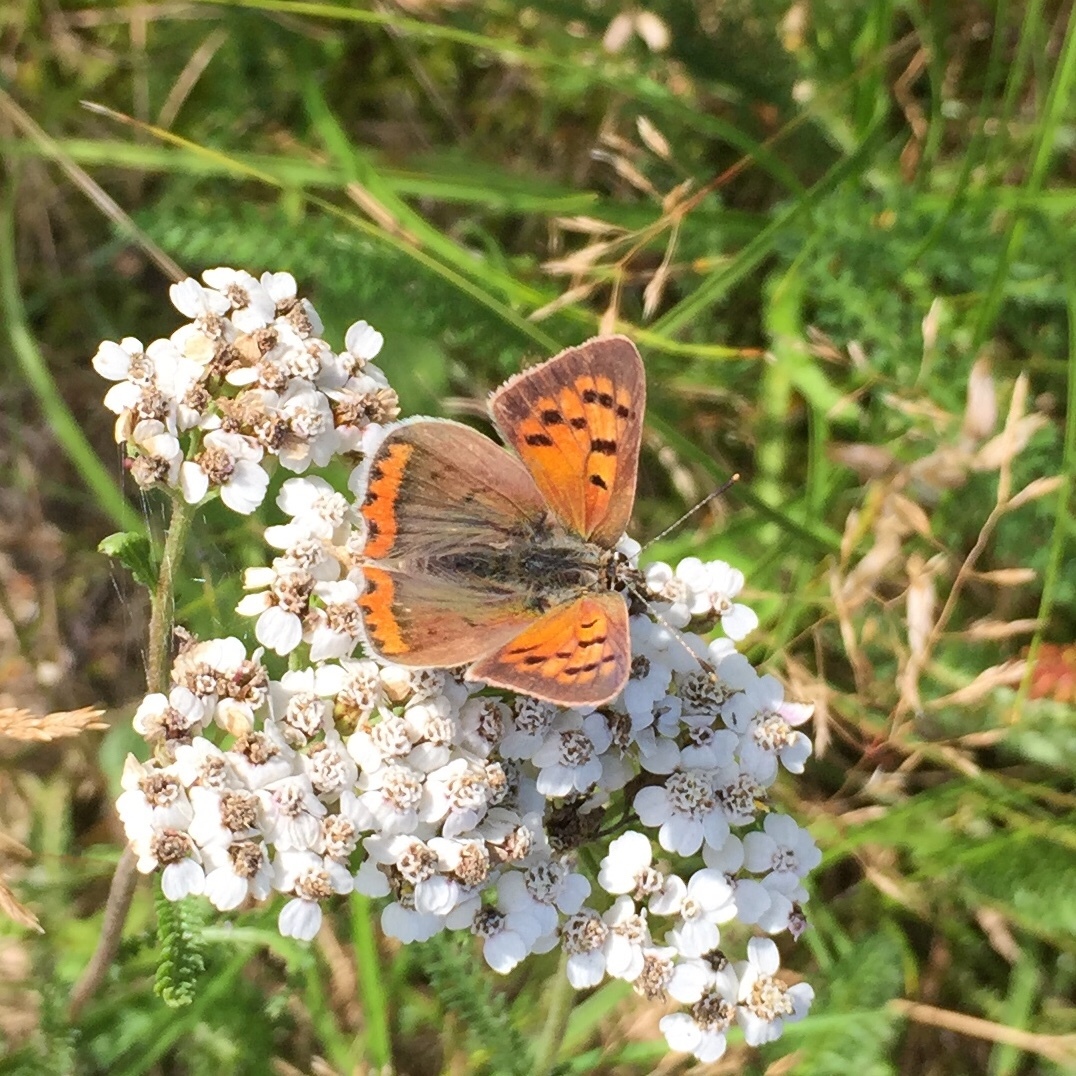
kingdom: Animalia
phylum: Arthropoda
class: Insecta
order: Lepidoptera
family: Lycaenidae
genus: Lycaena
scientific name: Lycaena phlaeas
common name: Small copper
